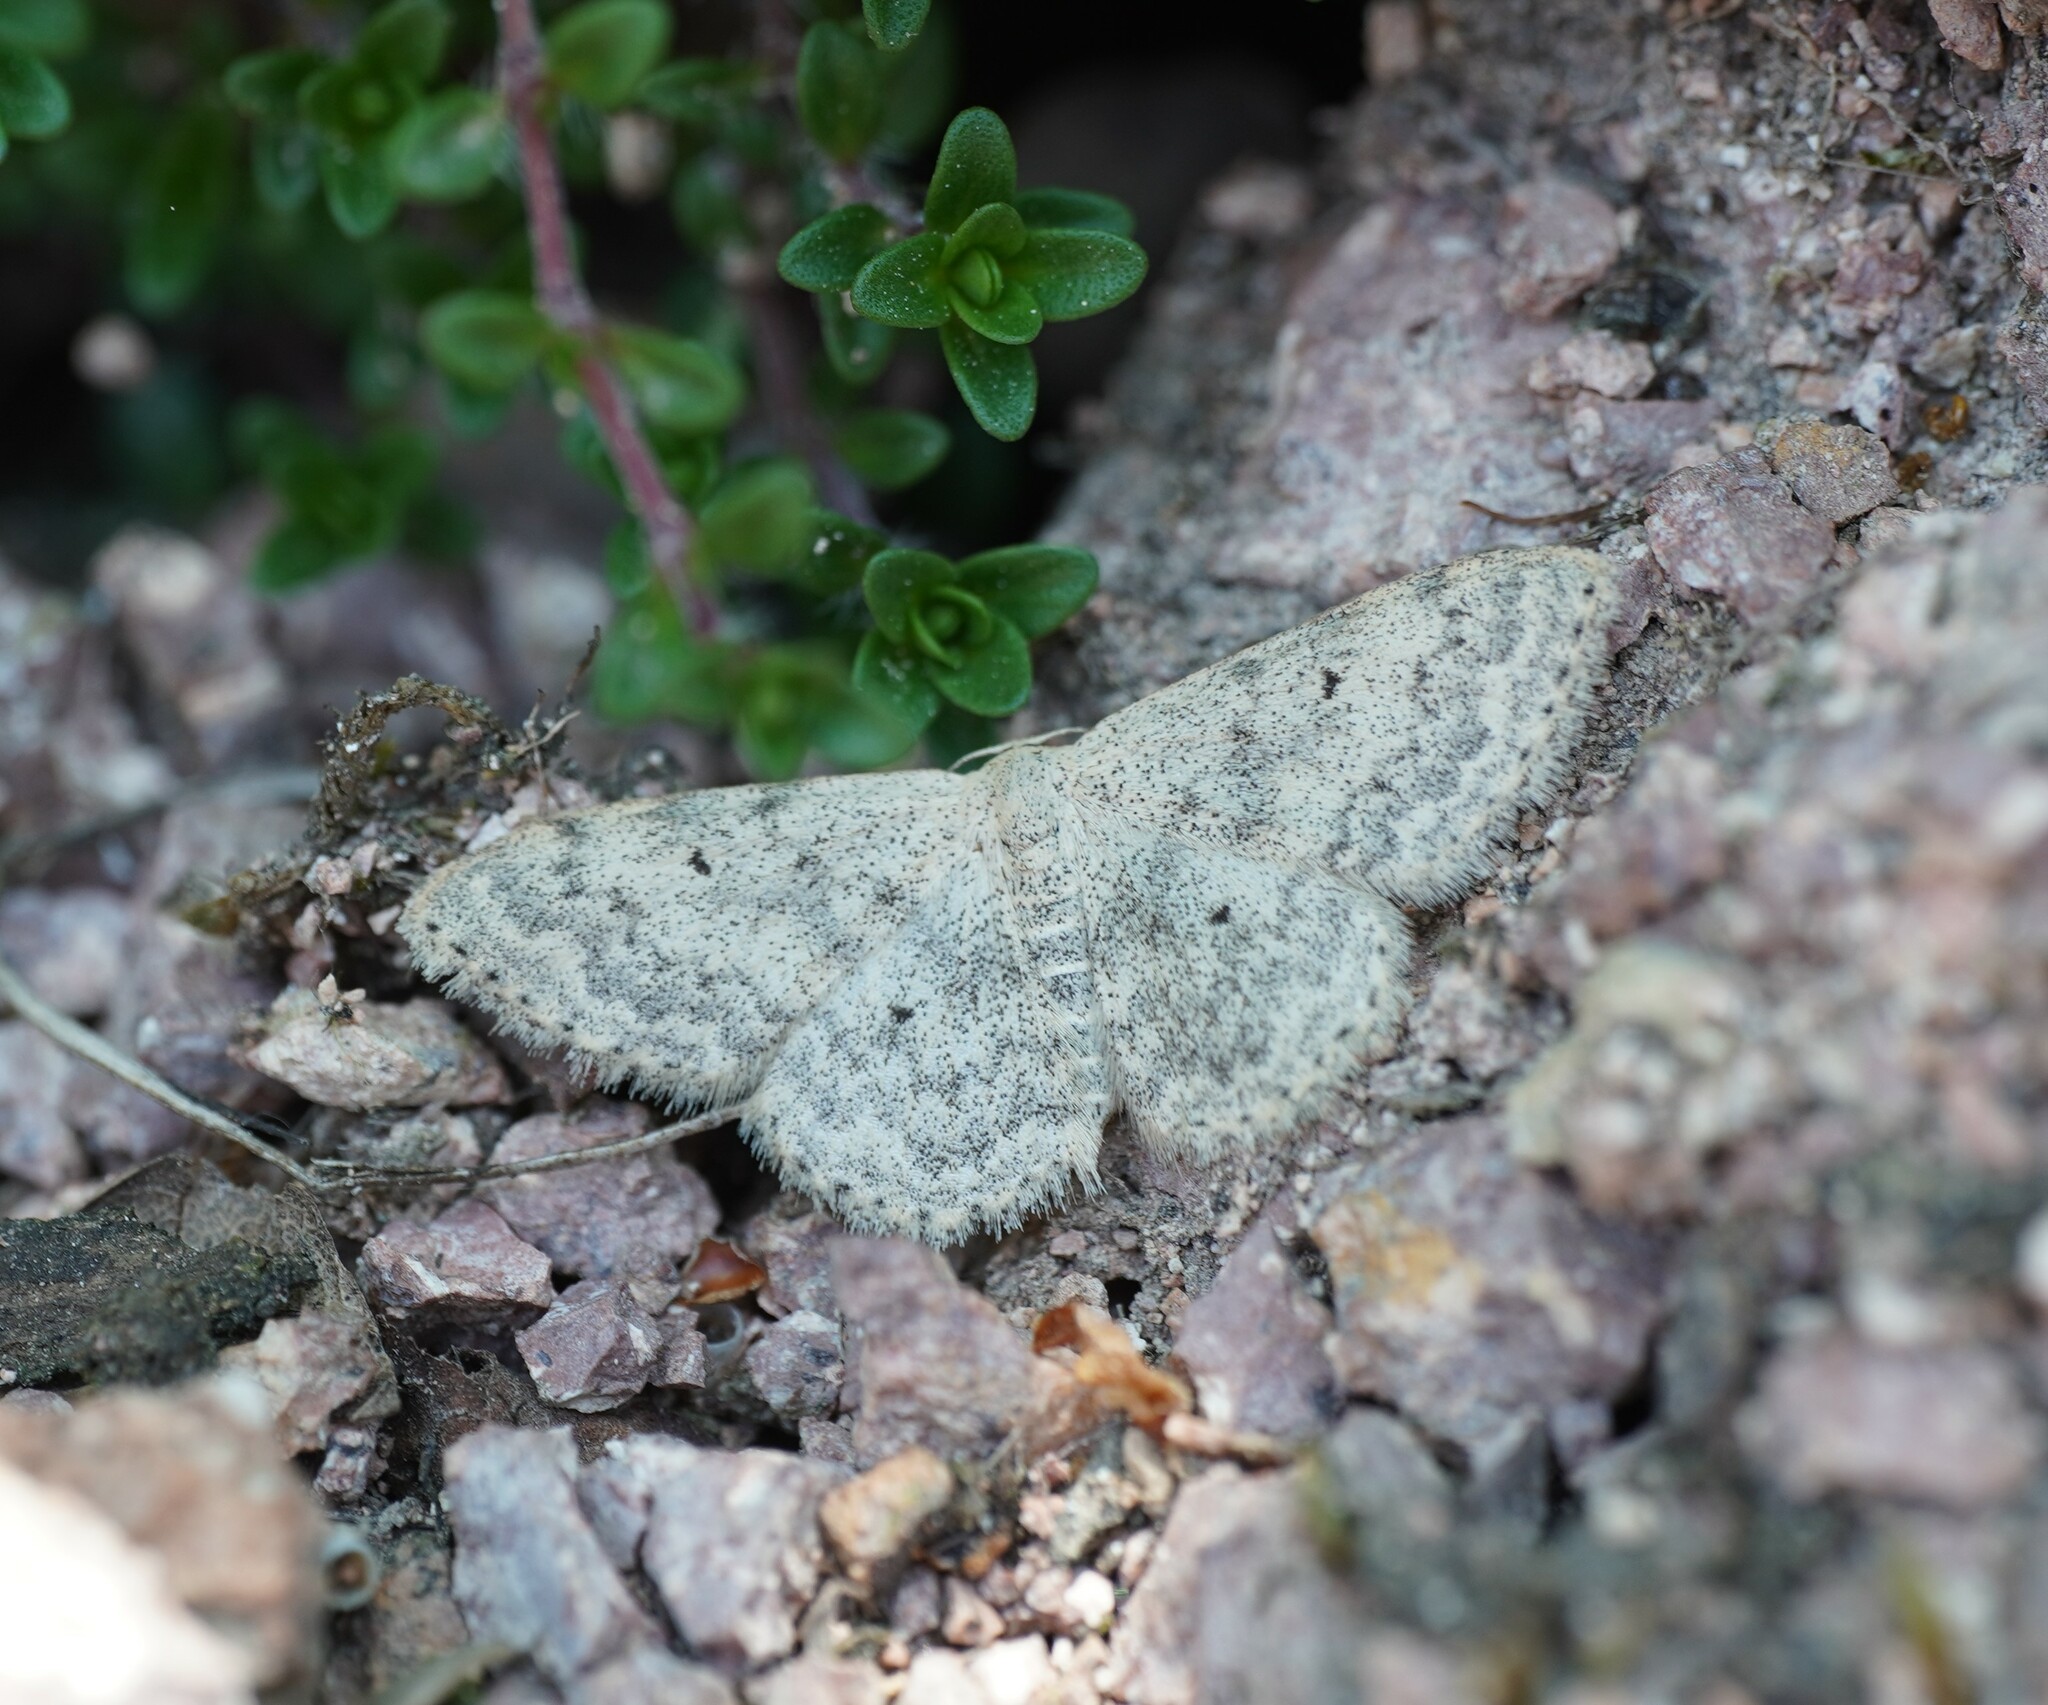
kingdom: Animalia
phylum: Arthropoda
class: Insecta
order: Lepidoptera
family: Geometridae
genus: Scopula
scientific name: Scopula marginepunctata
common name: Mullein wave
